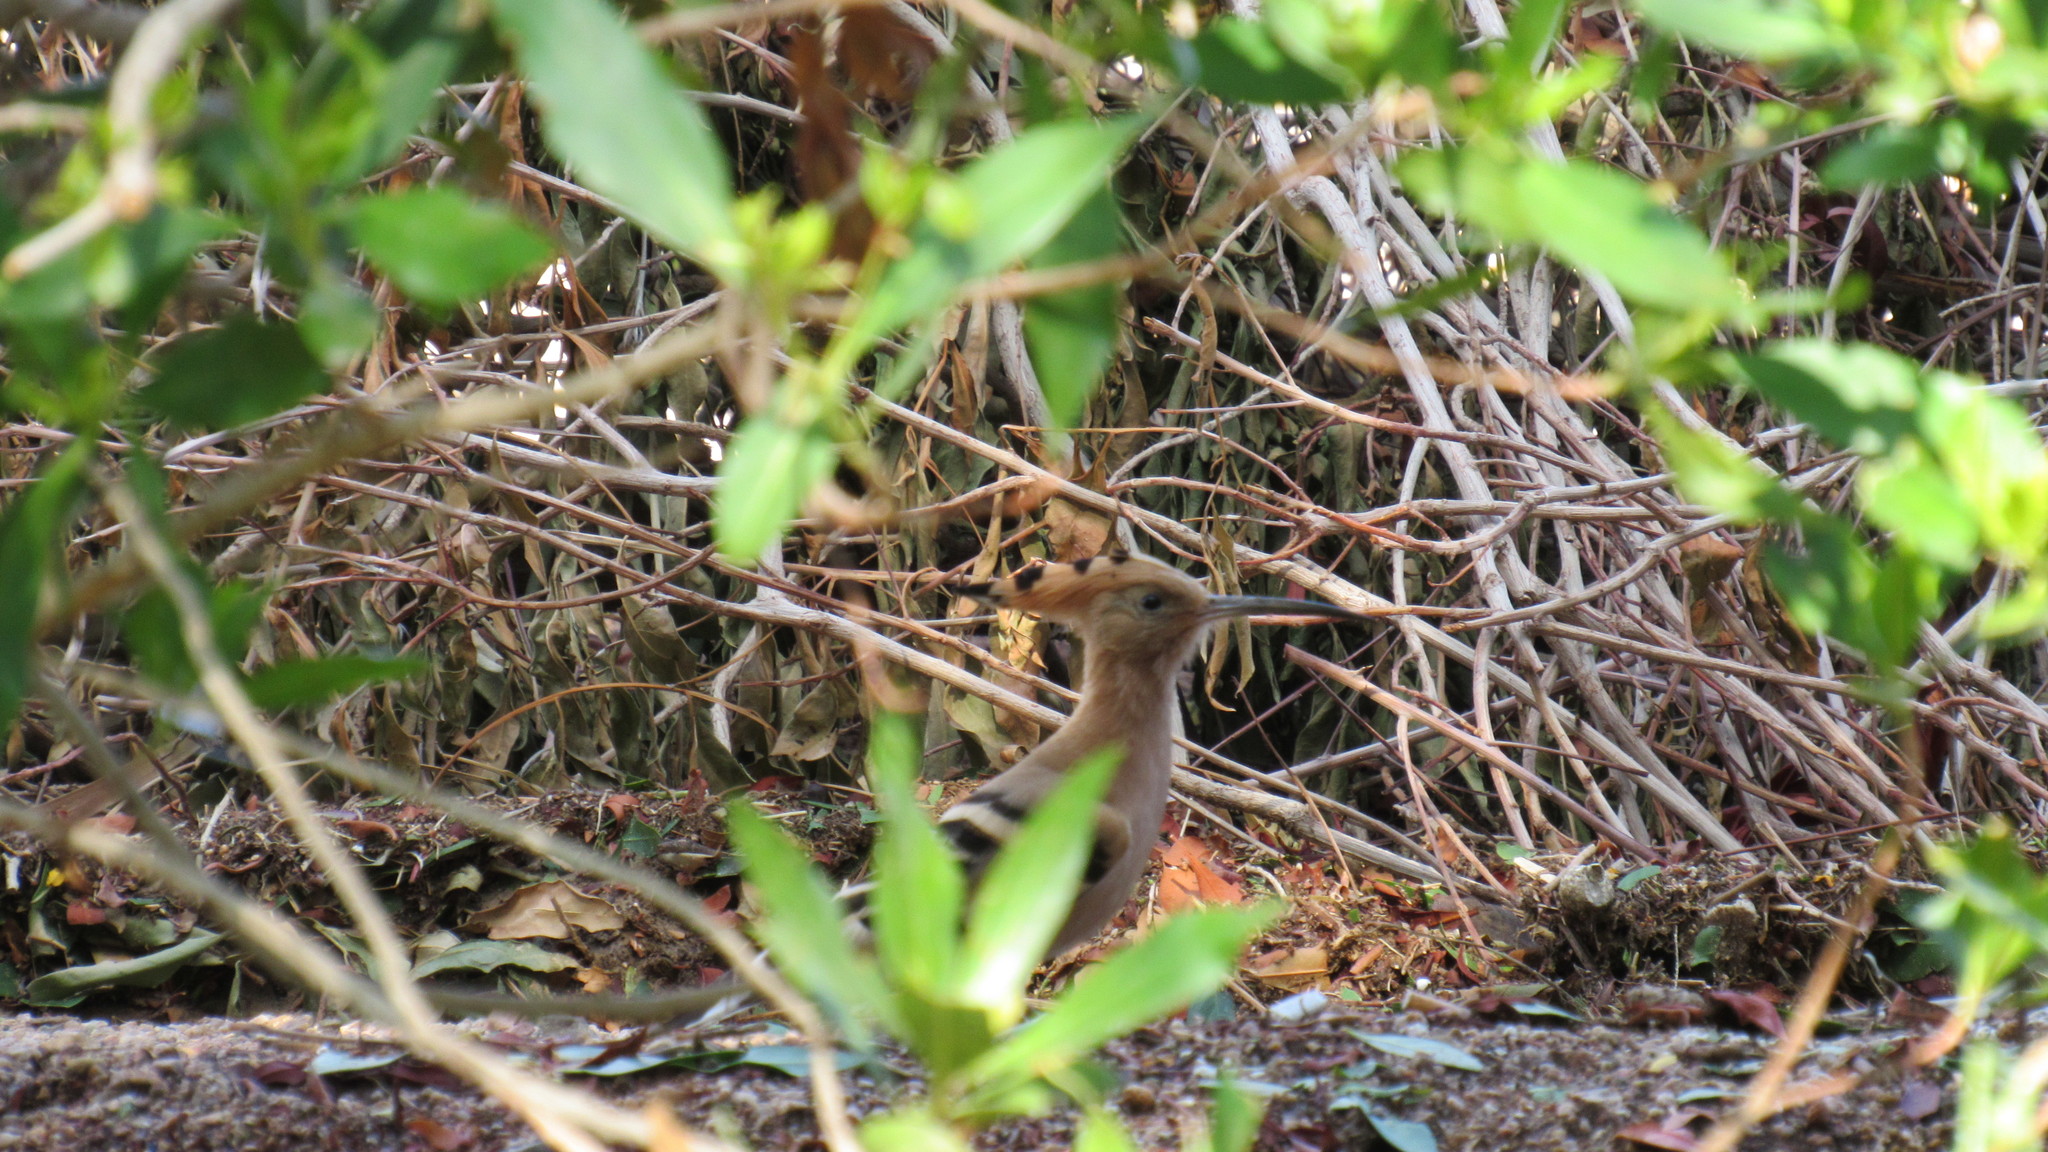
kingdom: Animalia
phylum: Chordata
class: Aves
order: Bucerotiformes
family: Upupidae
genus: Upupa
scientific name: Upupa epops
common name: Eurasian hoopoe
